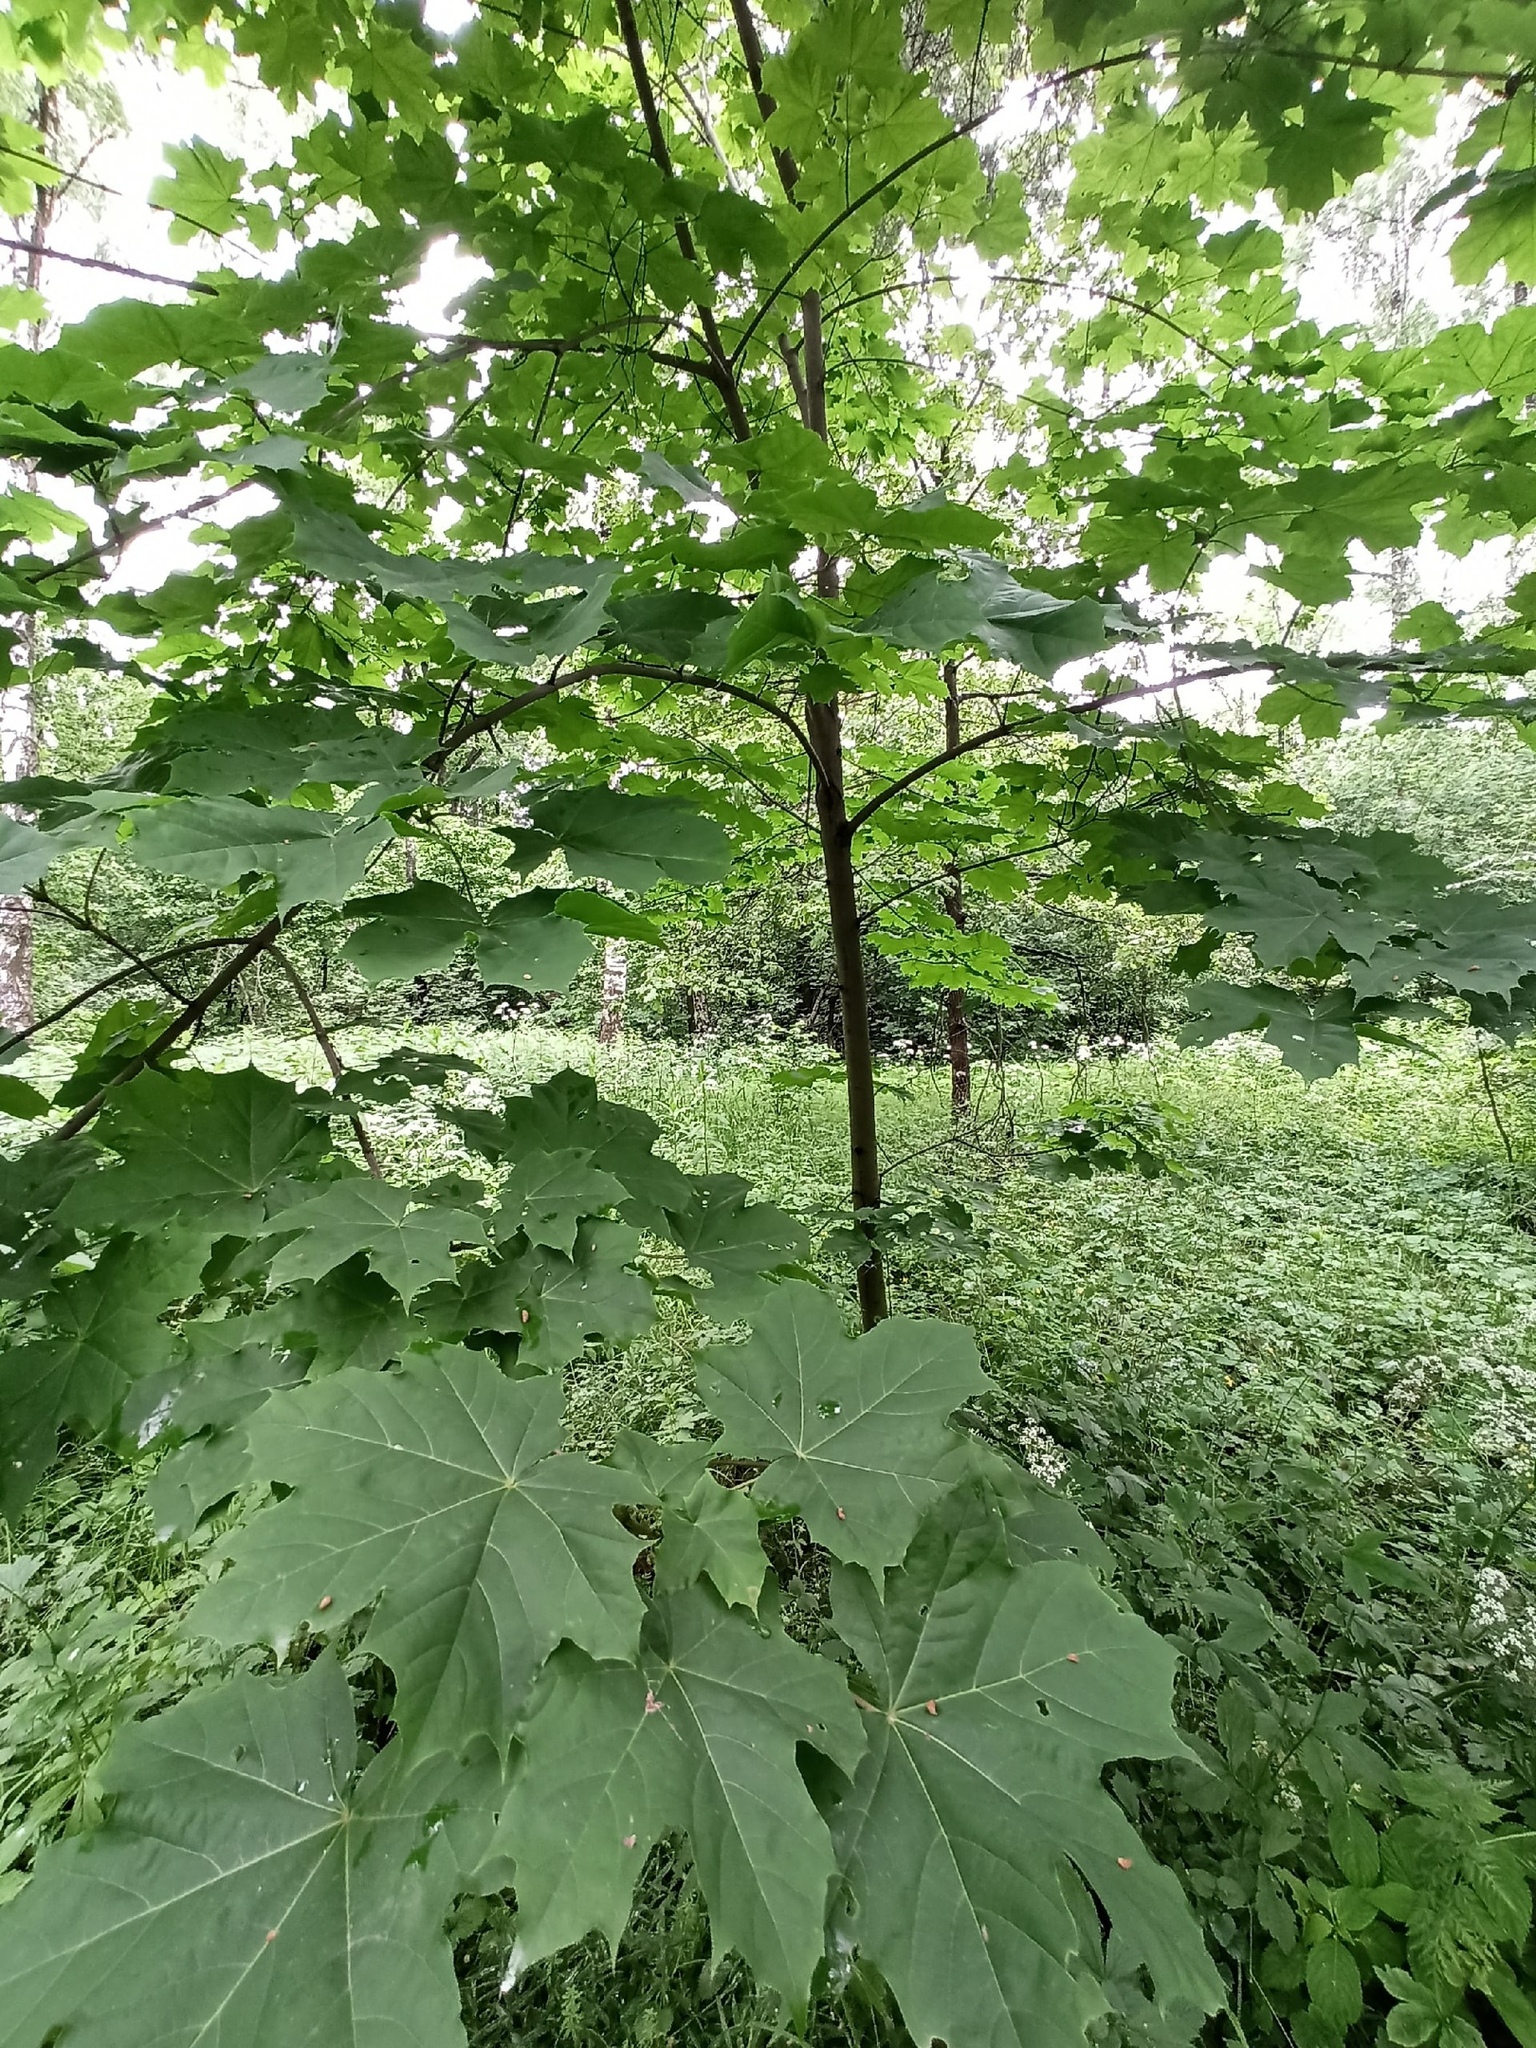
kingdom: Plantae
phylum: Tracheophyta
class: Magnoliopsida
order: Sapindales
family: Sapindaceae
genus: Acer
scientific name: Acer platanoides
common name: Norway maple
